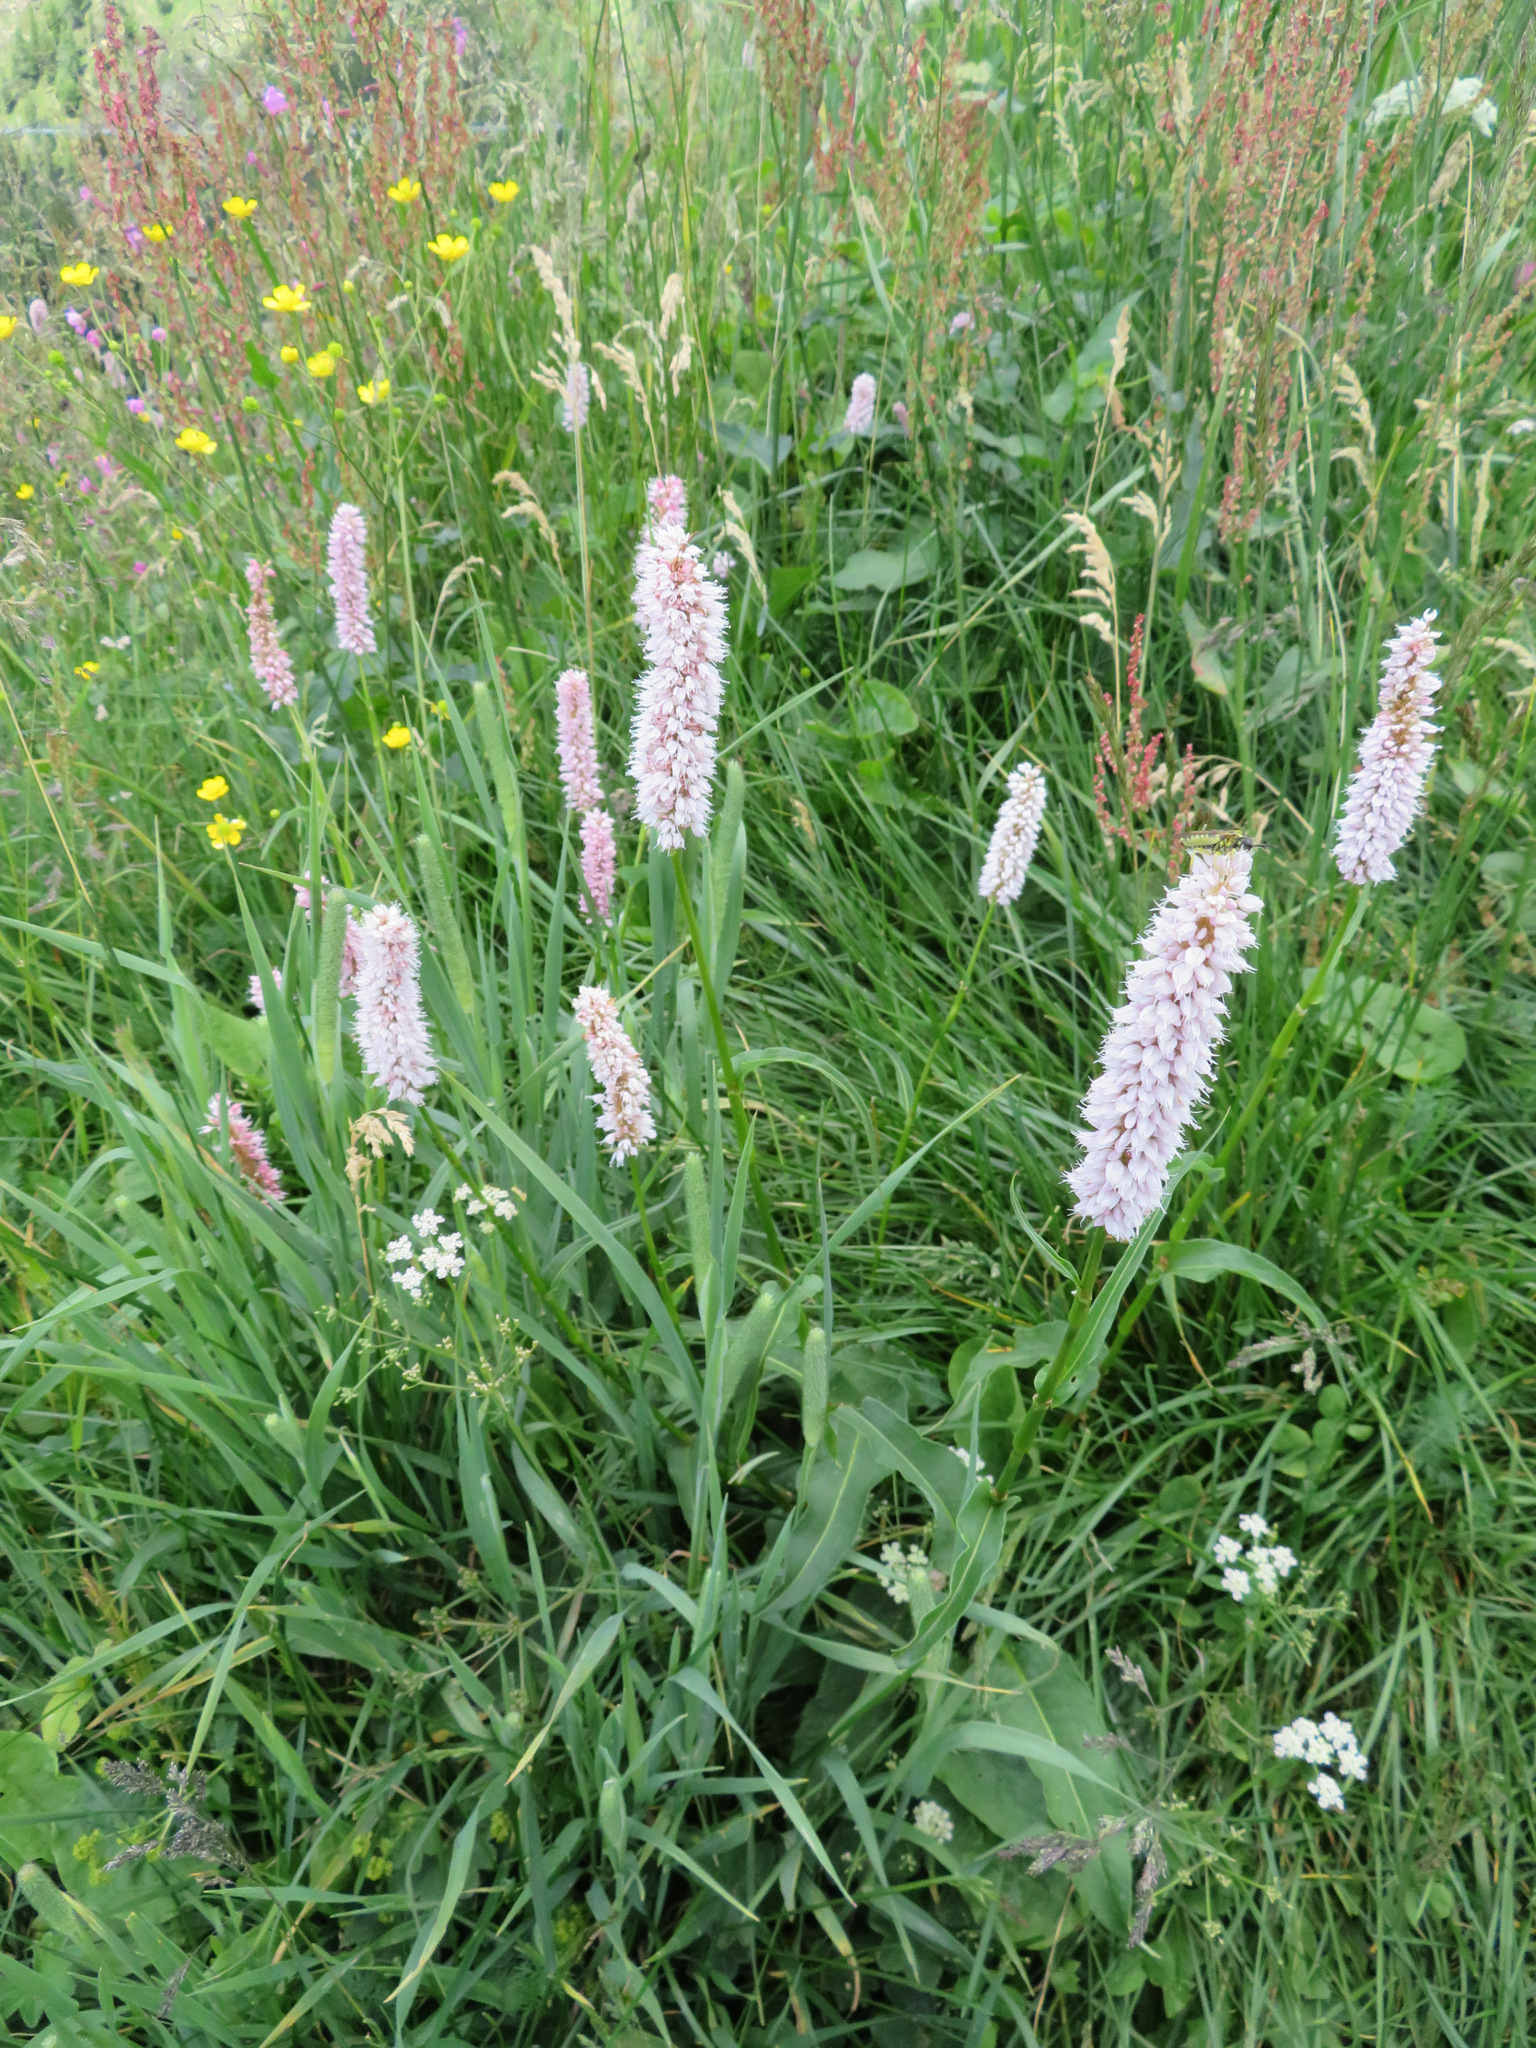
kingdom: Plantae
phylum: Tracheophyta
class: Magnoliopsida
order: Caryophyllales
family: Polygonaceae
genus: Bistorta
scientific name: Bistorta officinalis
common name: Common bistort
